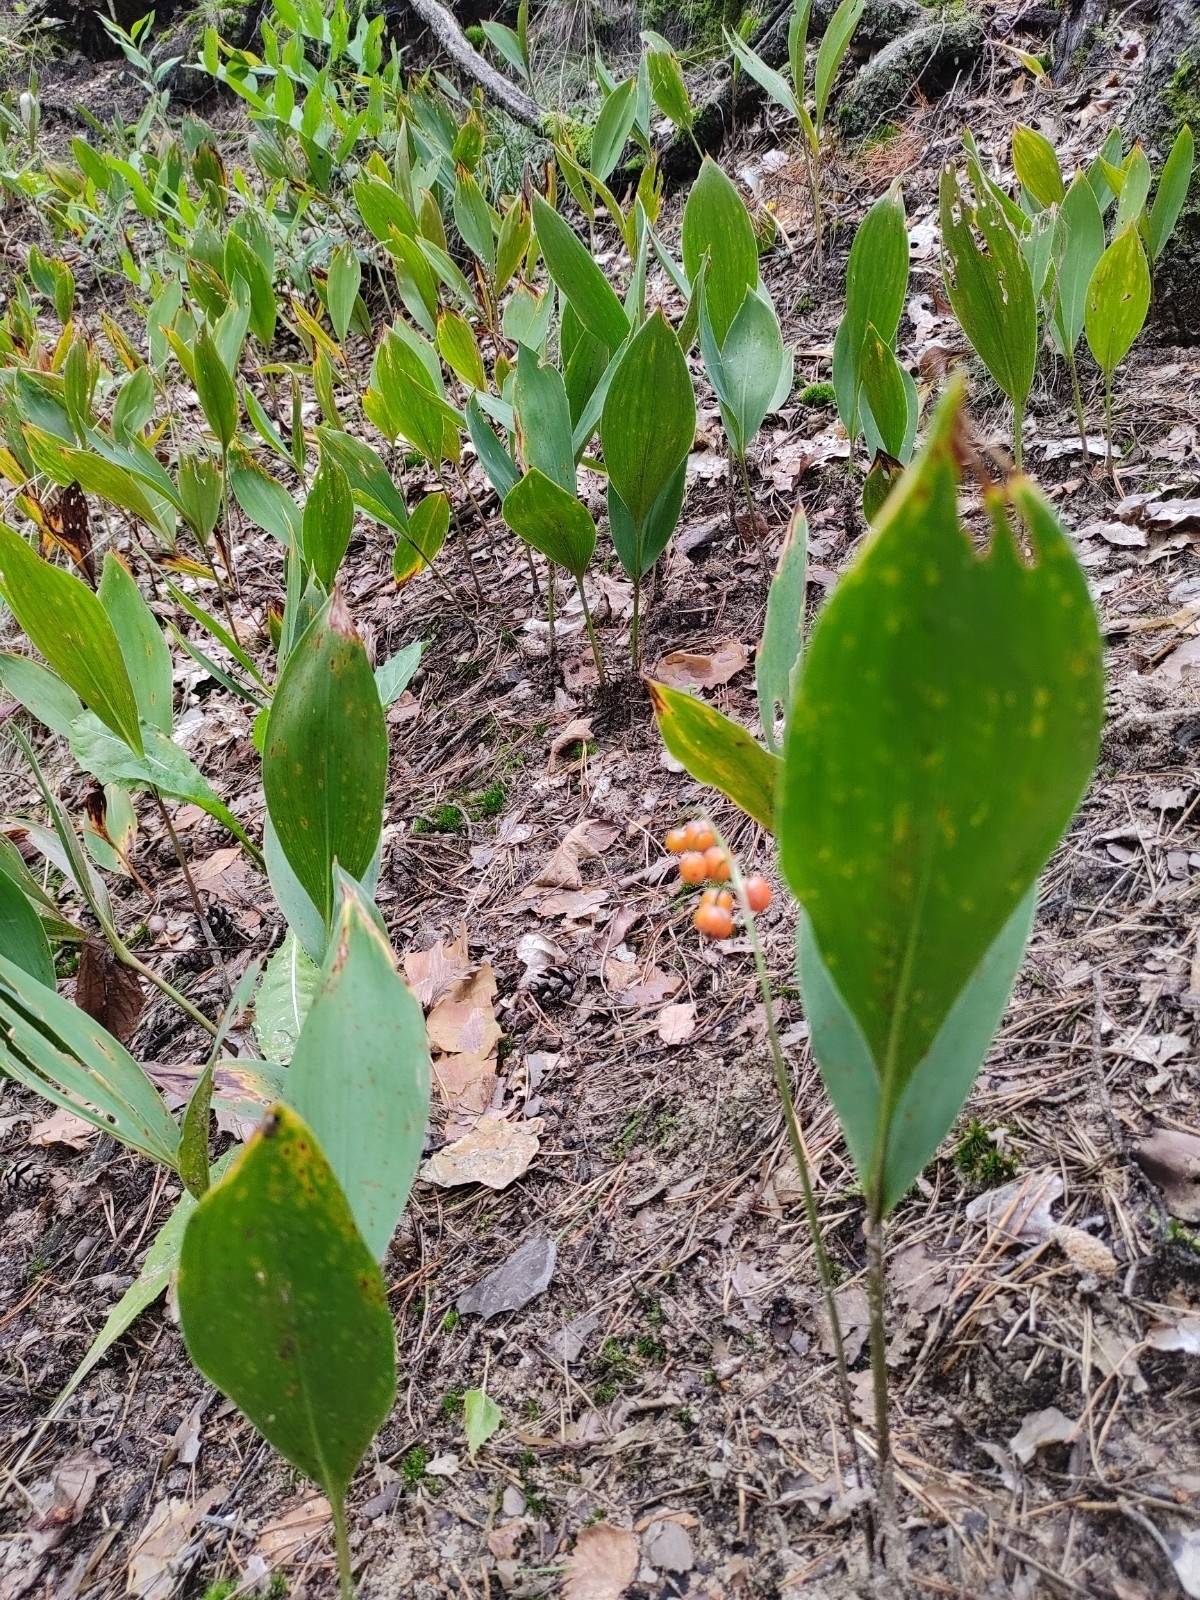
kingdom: Plantae
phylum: Tracheophyta
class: Liliopsida
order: Asparagales
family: Asparagaceae
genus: Convallaria
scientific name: Convallaria majalis
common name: Lily-of-the-valley
